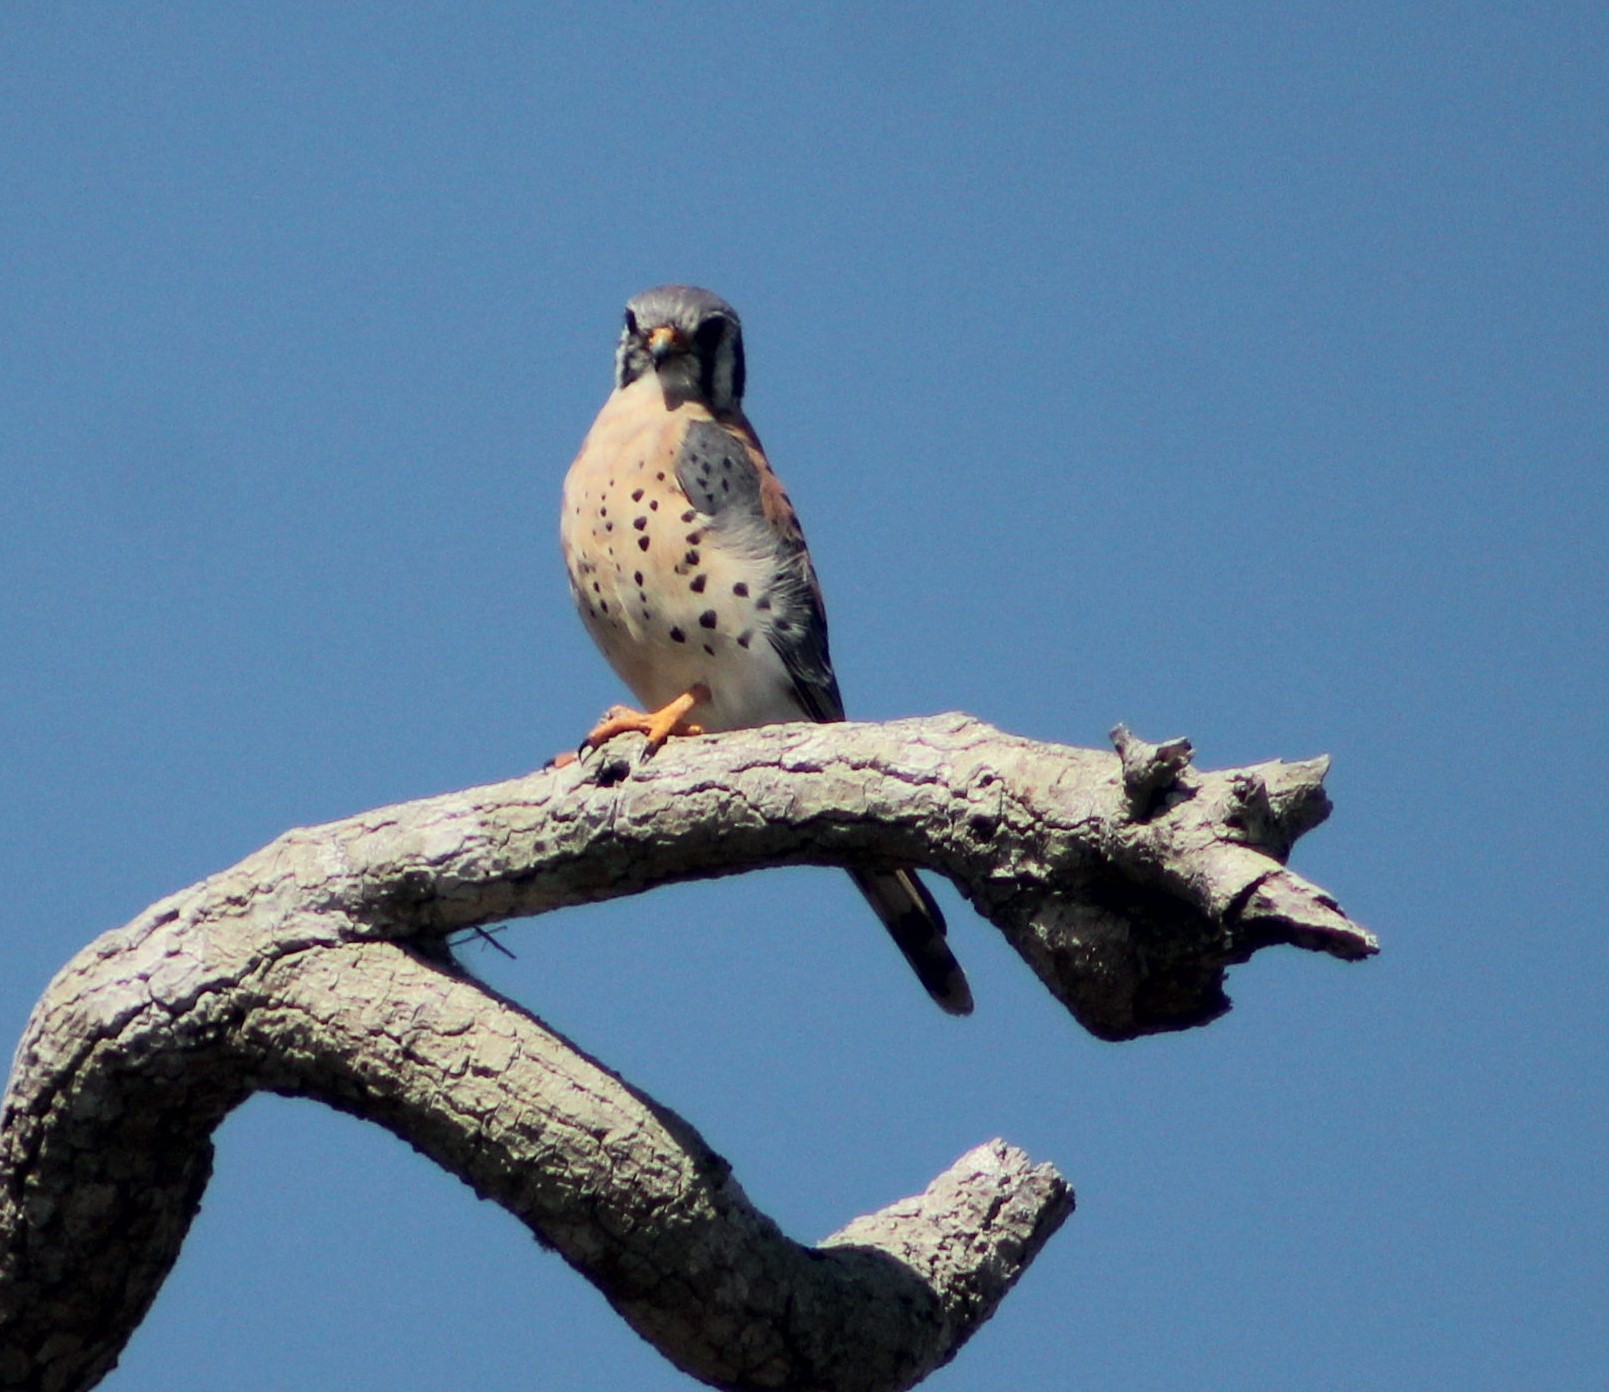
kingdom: Animalia
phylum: Chordata
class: Aves
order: Falconiformes
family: Falconidae
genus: Falco
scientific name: Falco sparverius
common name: American kestrel
